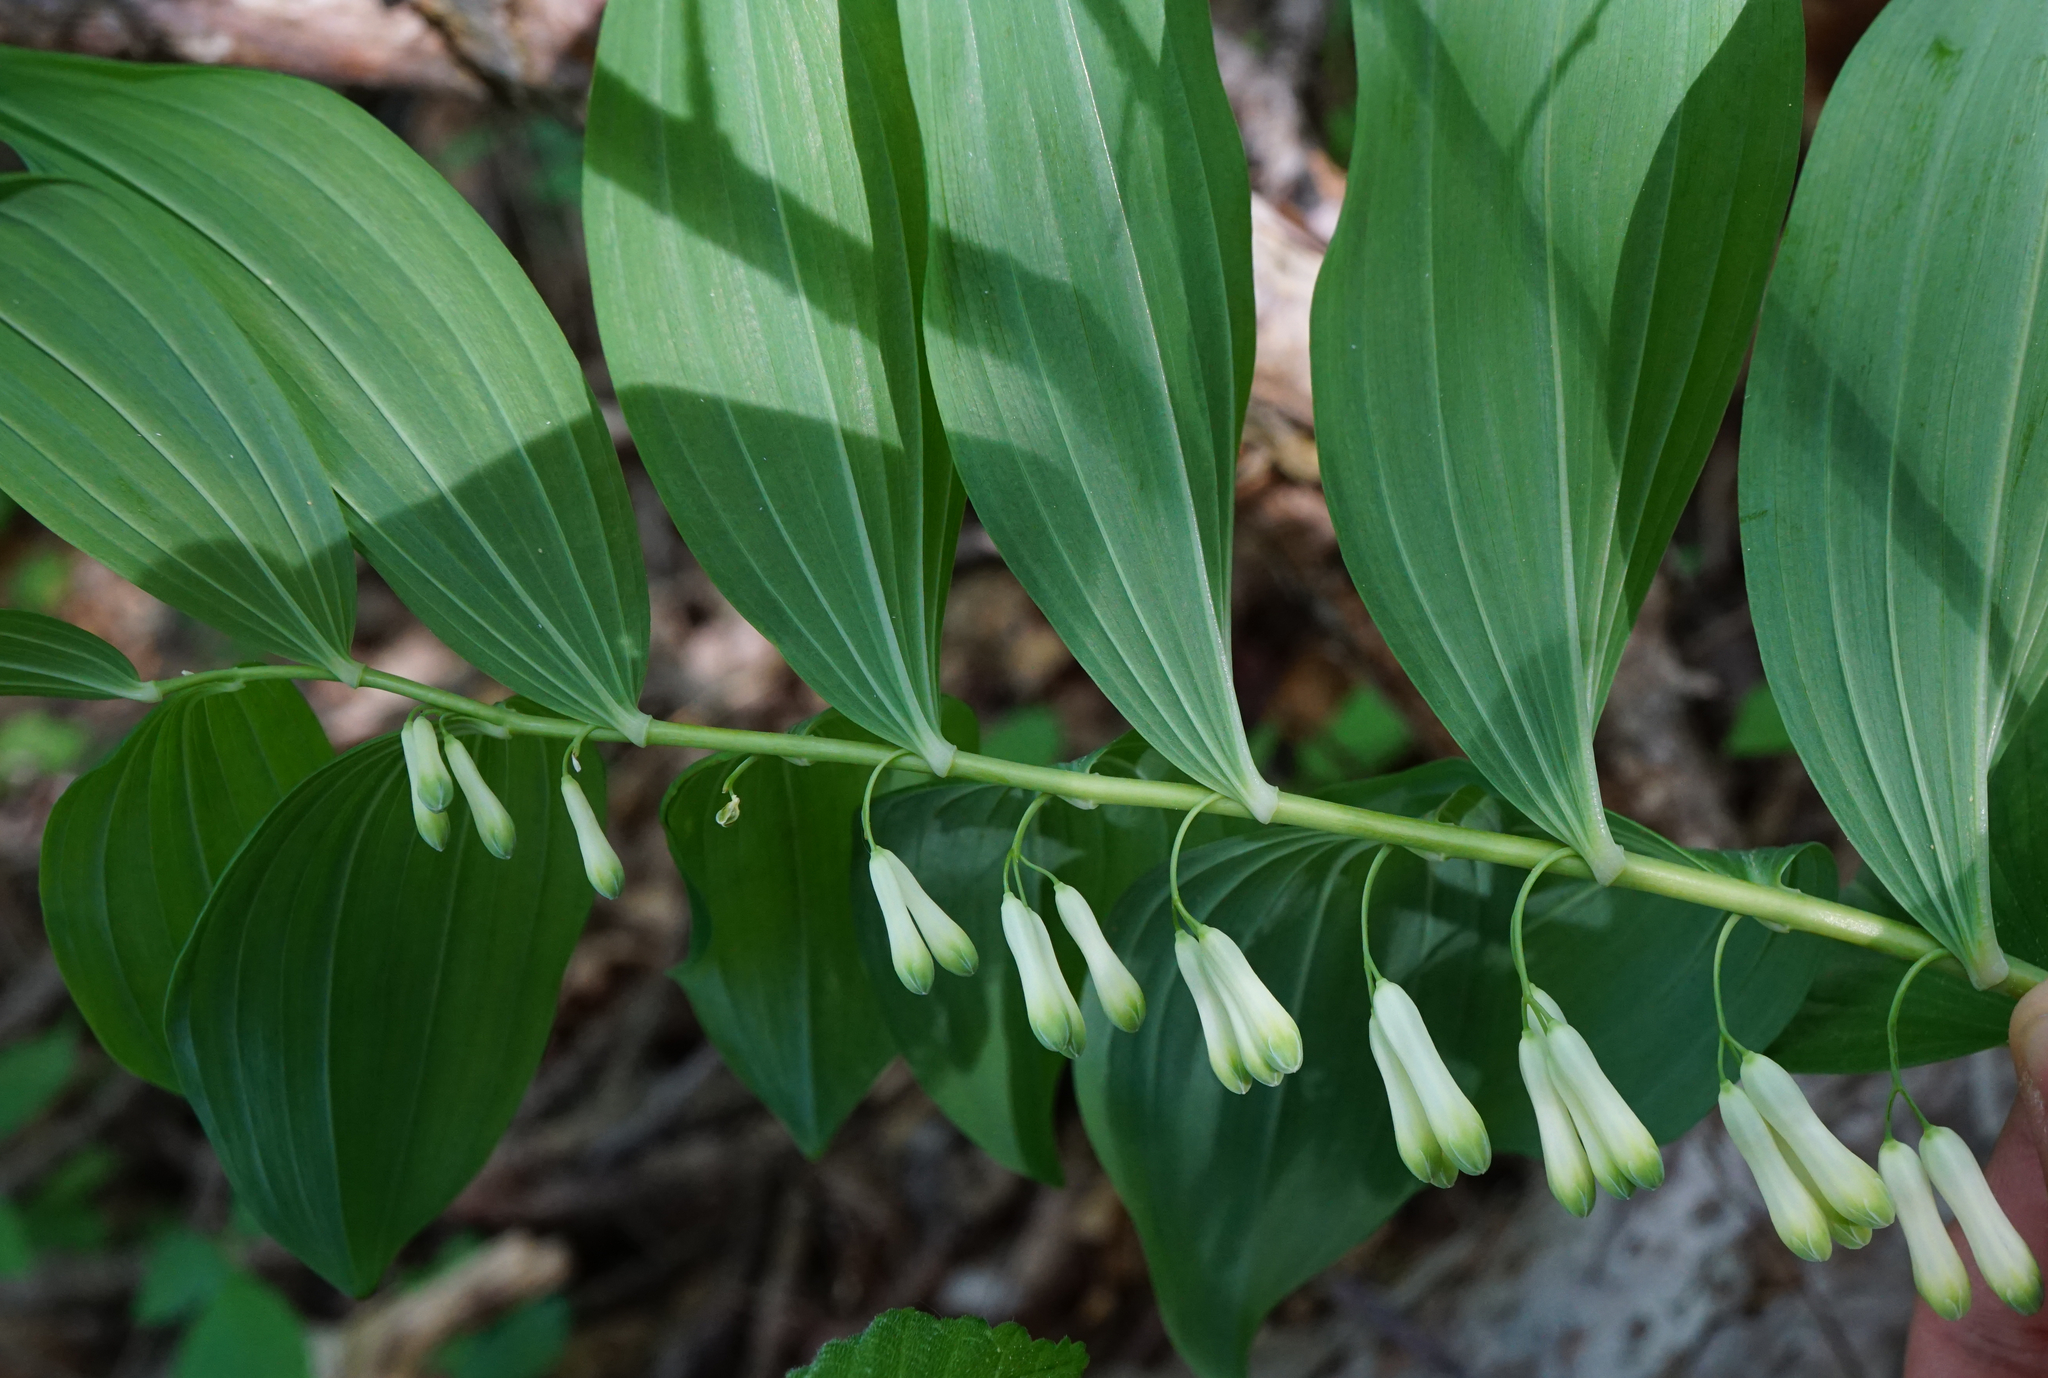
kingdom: Plantae
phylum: Tracheophyta
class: Liliopsida
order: Asparagales
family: Asparagaceae
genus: Polygonatum
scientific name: Polygonatum multiflorum
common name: Solomon's-seal
